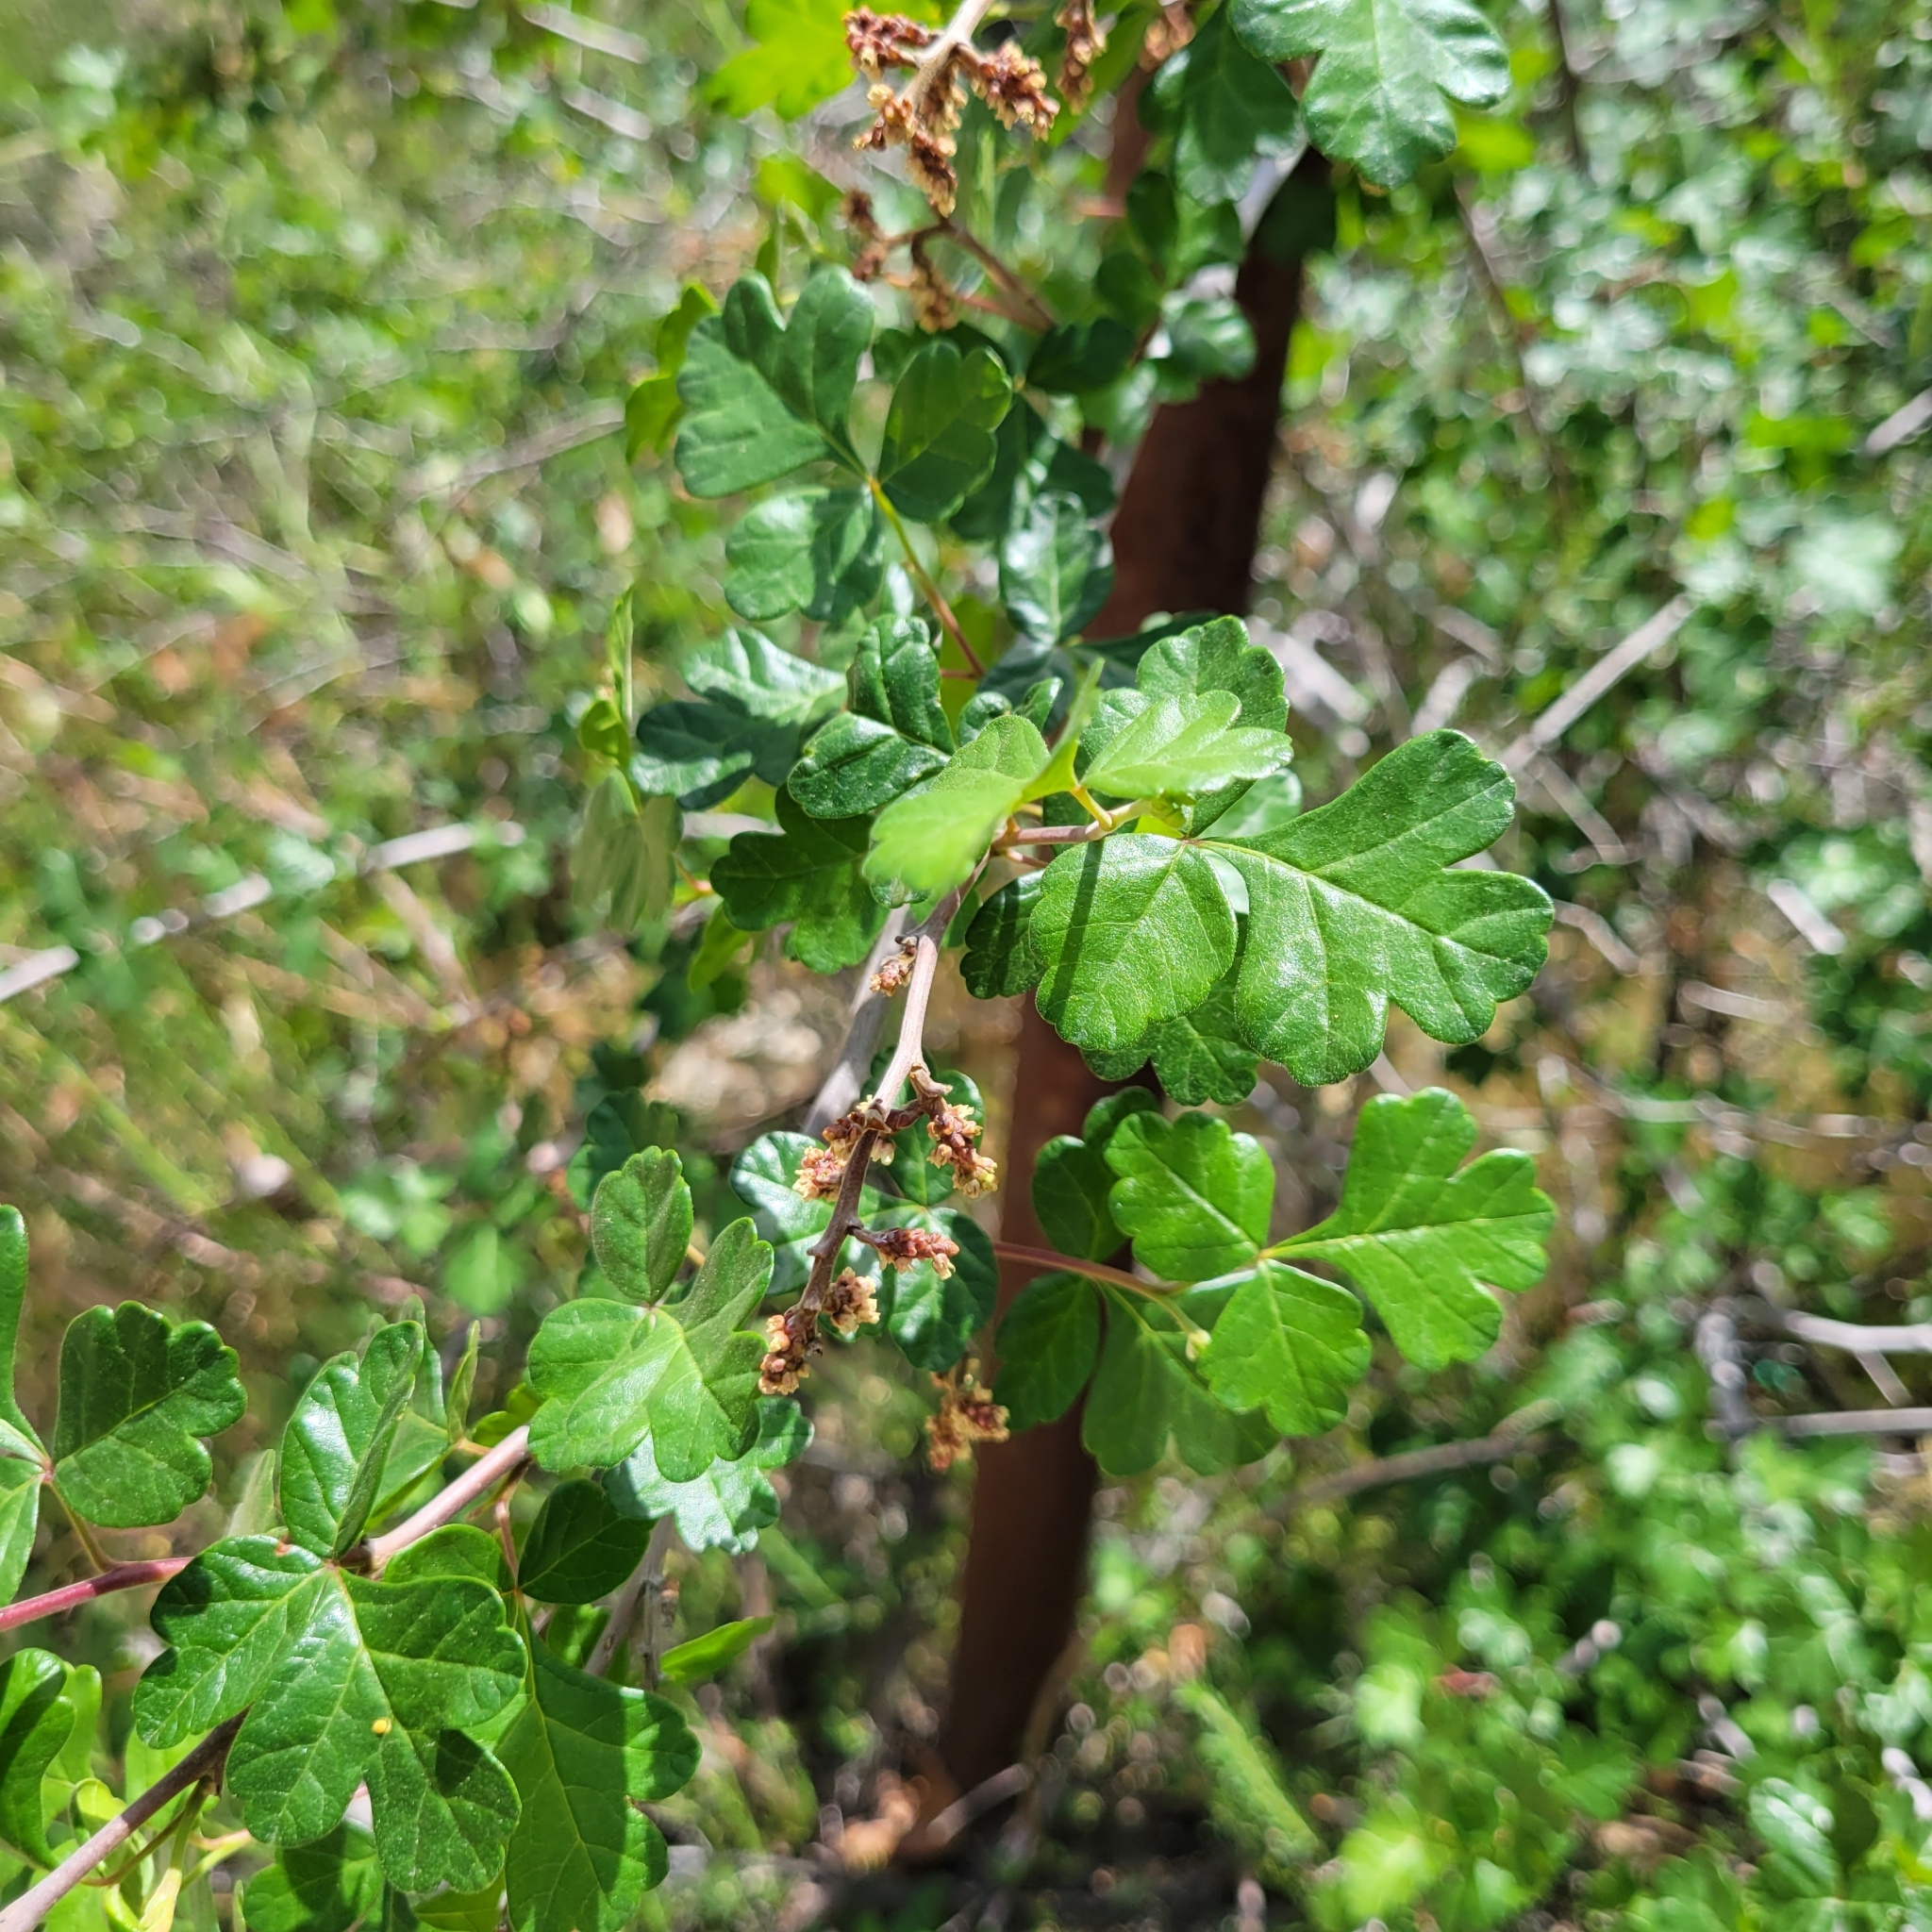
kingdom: Plantae
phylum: Tracheophyta
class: Magnoliopsida
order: Sapindales
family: Anacardiaceae
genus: Rhus
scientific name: Rhus aromatica
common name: Aromatic sumac
